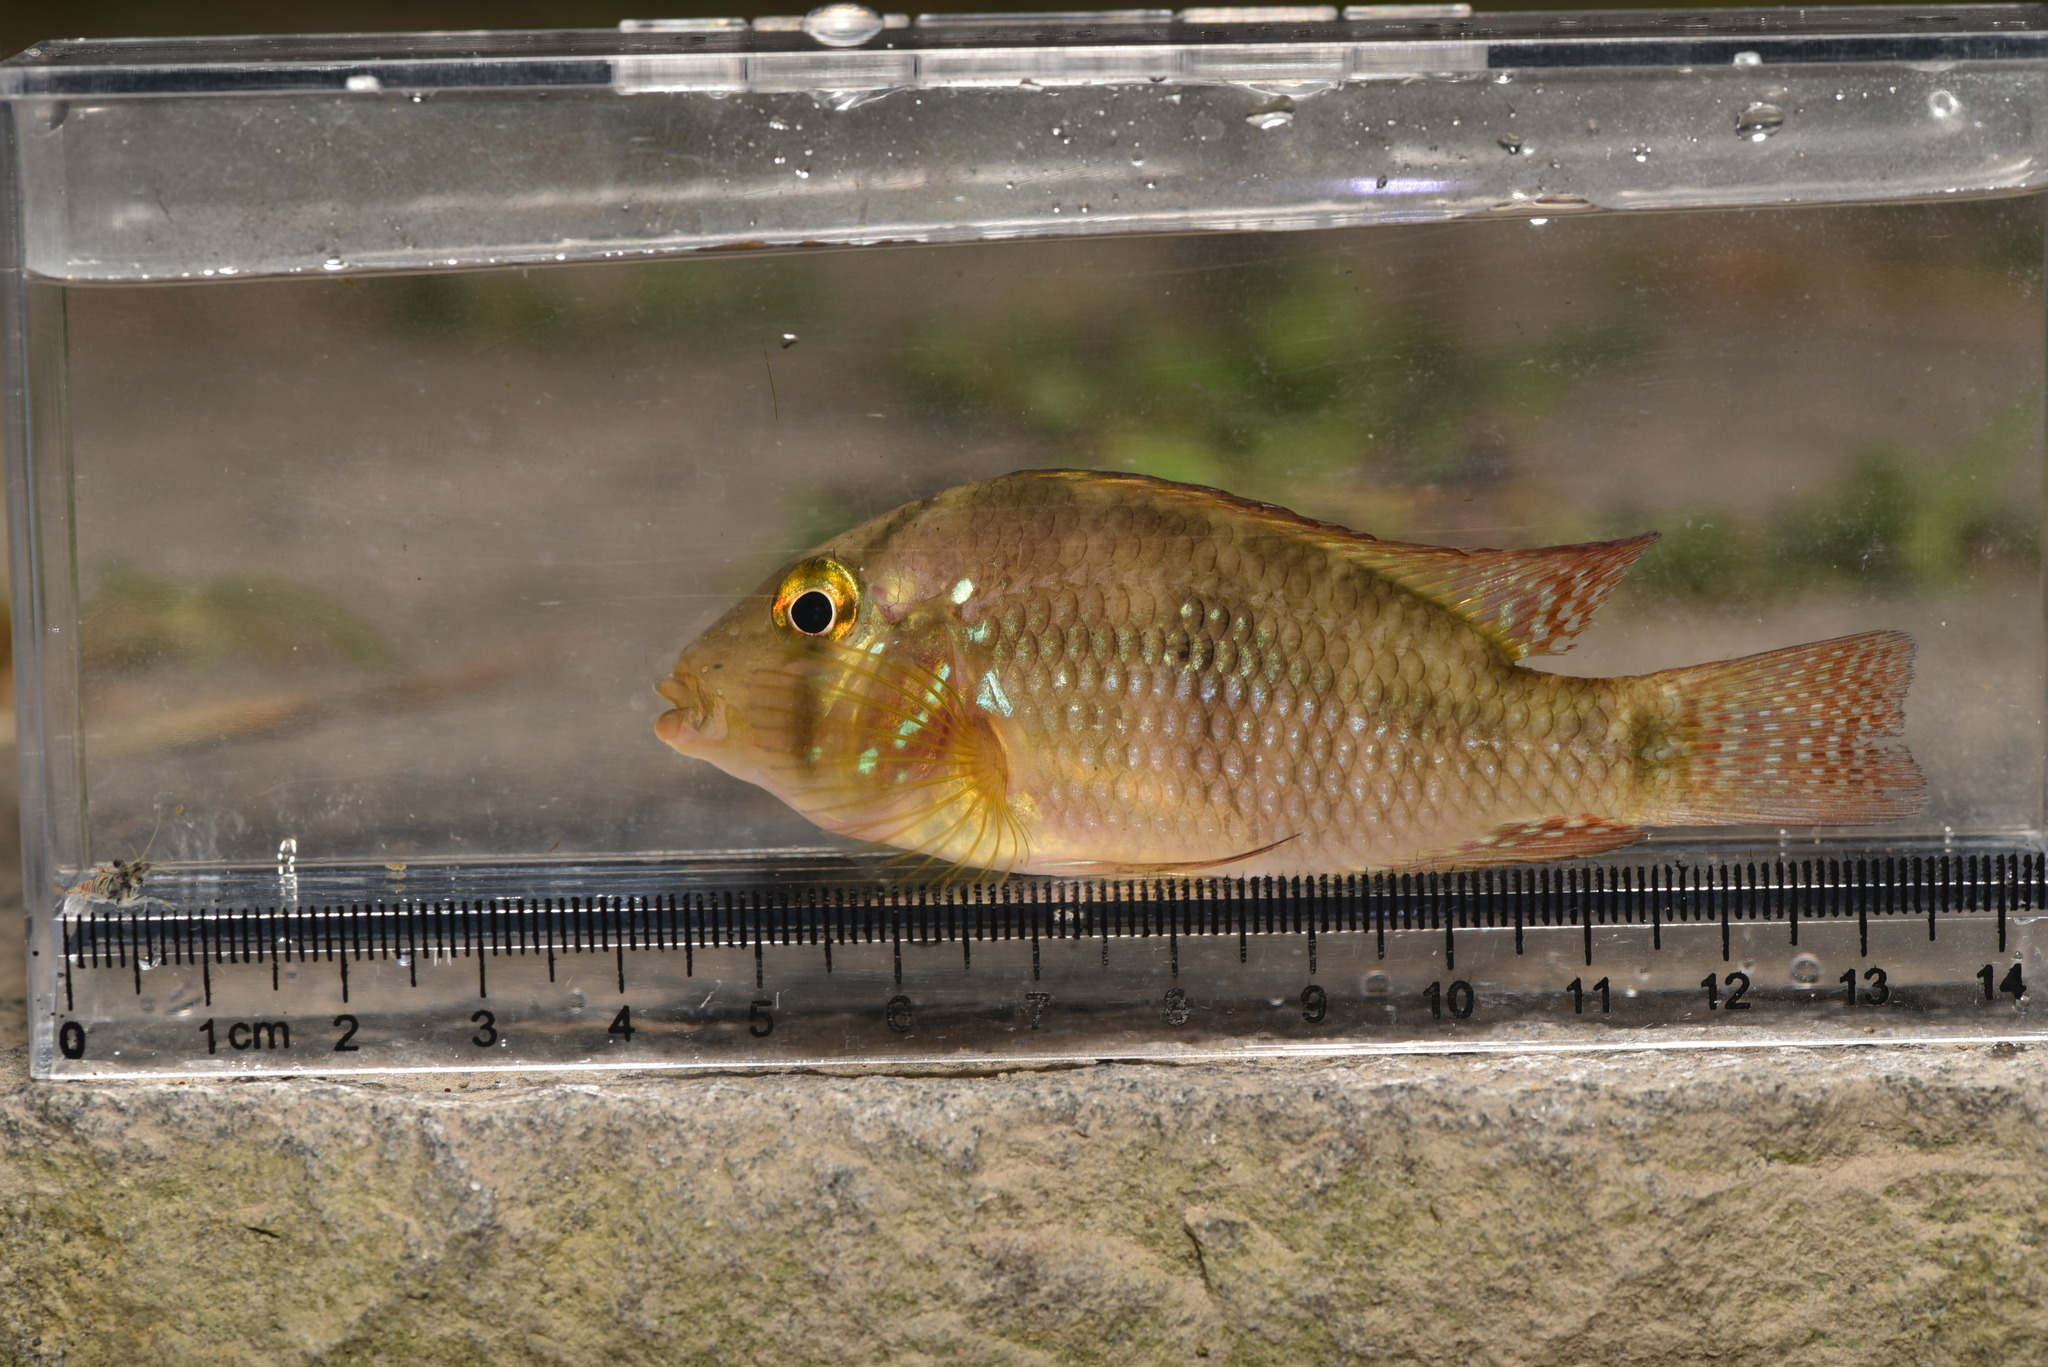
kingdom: Animalia
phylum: Chordata
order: Perciformes
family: Cichlidae
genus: Geophagus
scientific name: Geophagus brasiliensis
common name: Braziliensis
